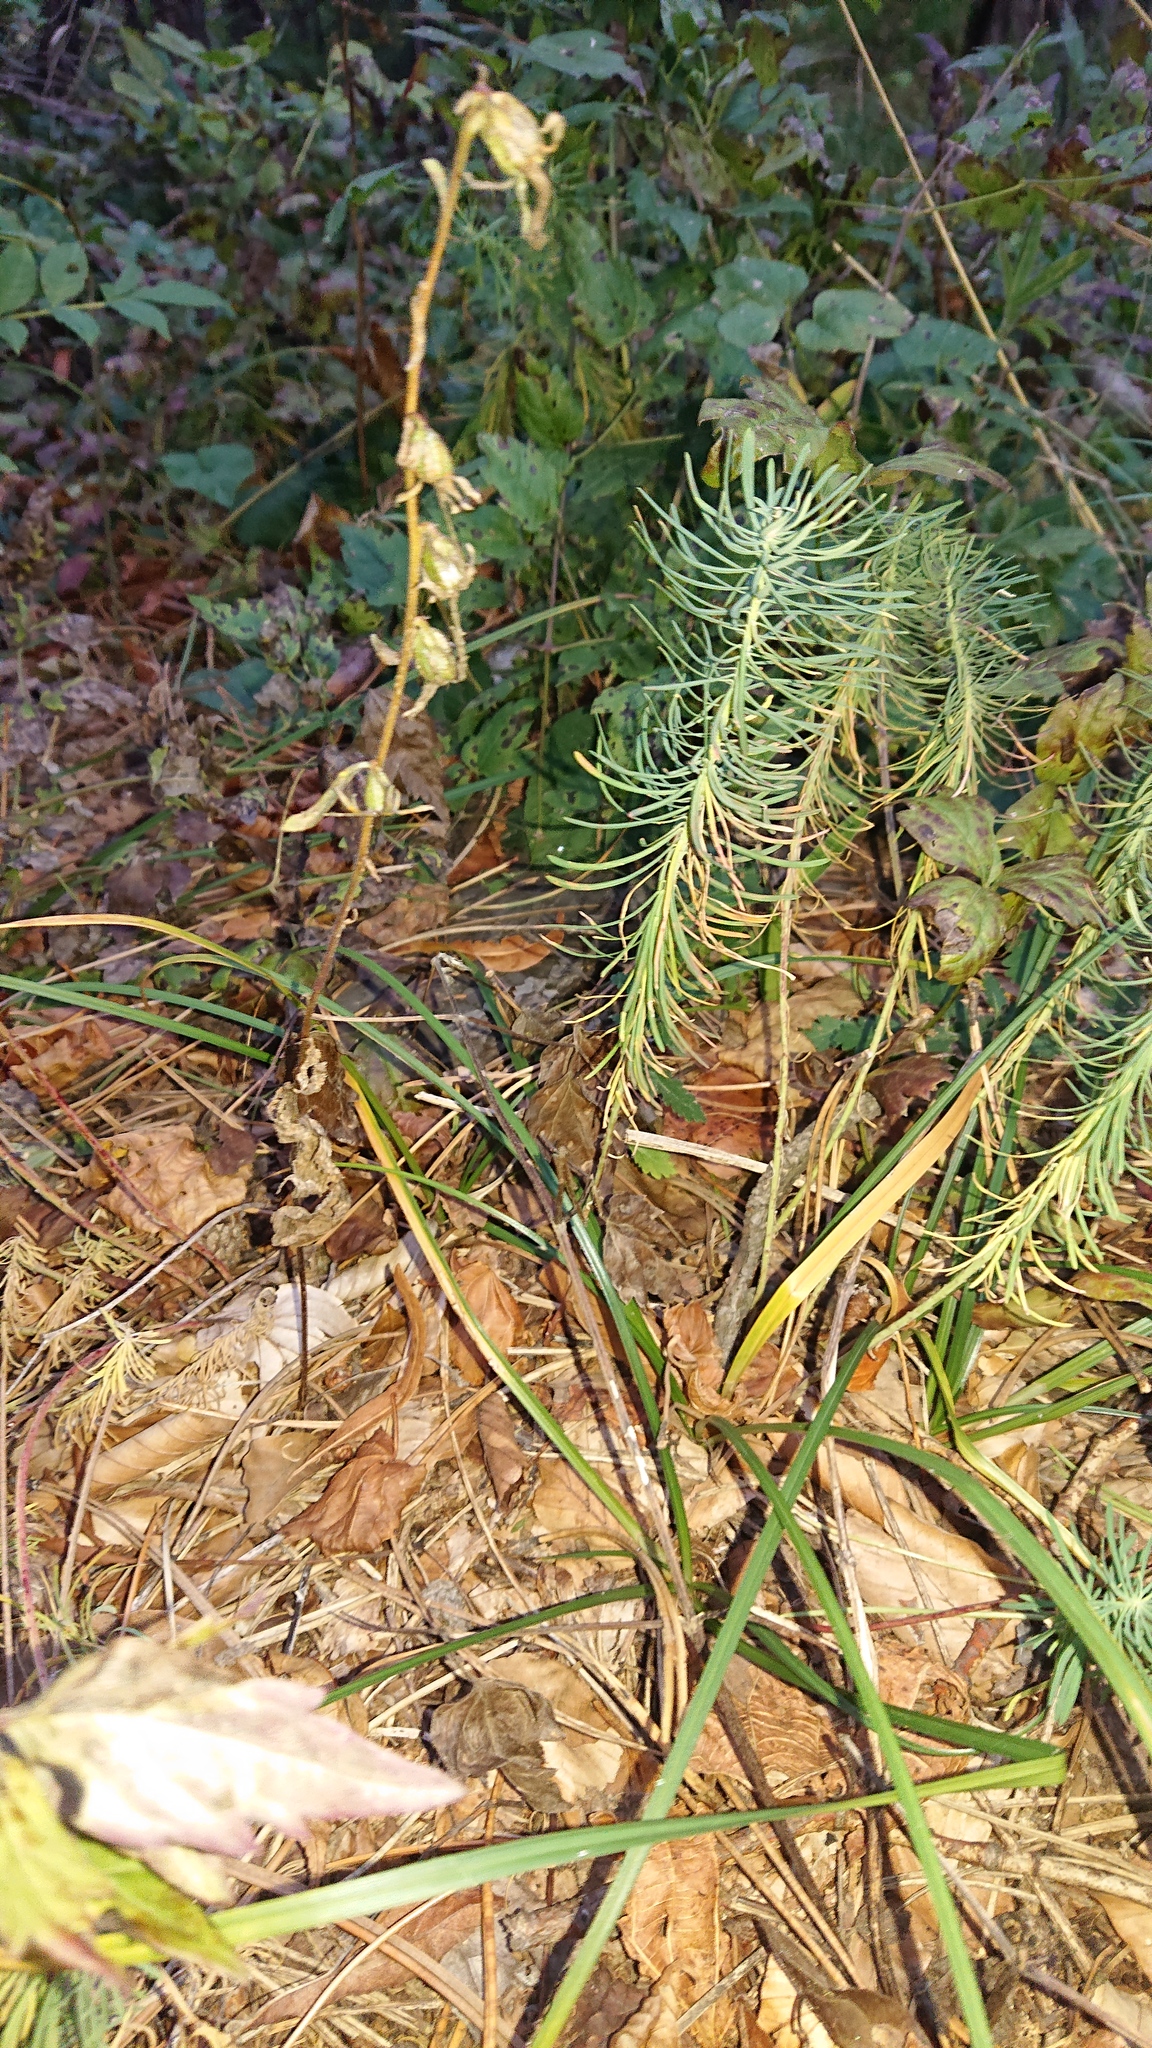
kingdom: Plantae
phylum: Tracheophyta
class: Magnoliopsida
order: Malpighiales
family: Euphorbiaceae
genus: Euphorbia
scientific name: Euphorbia cyparissias
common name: Cypress spurge
